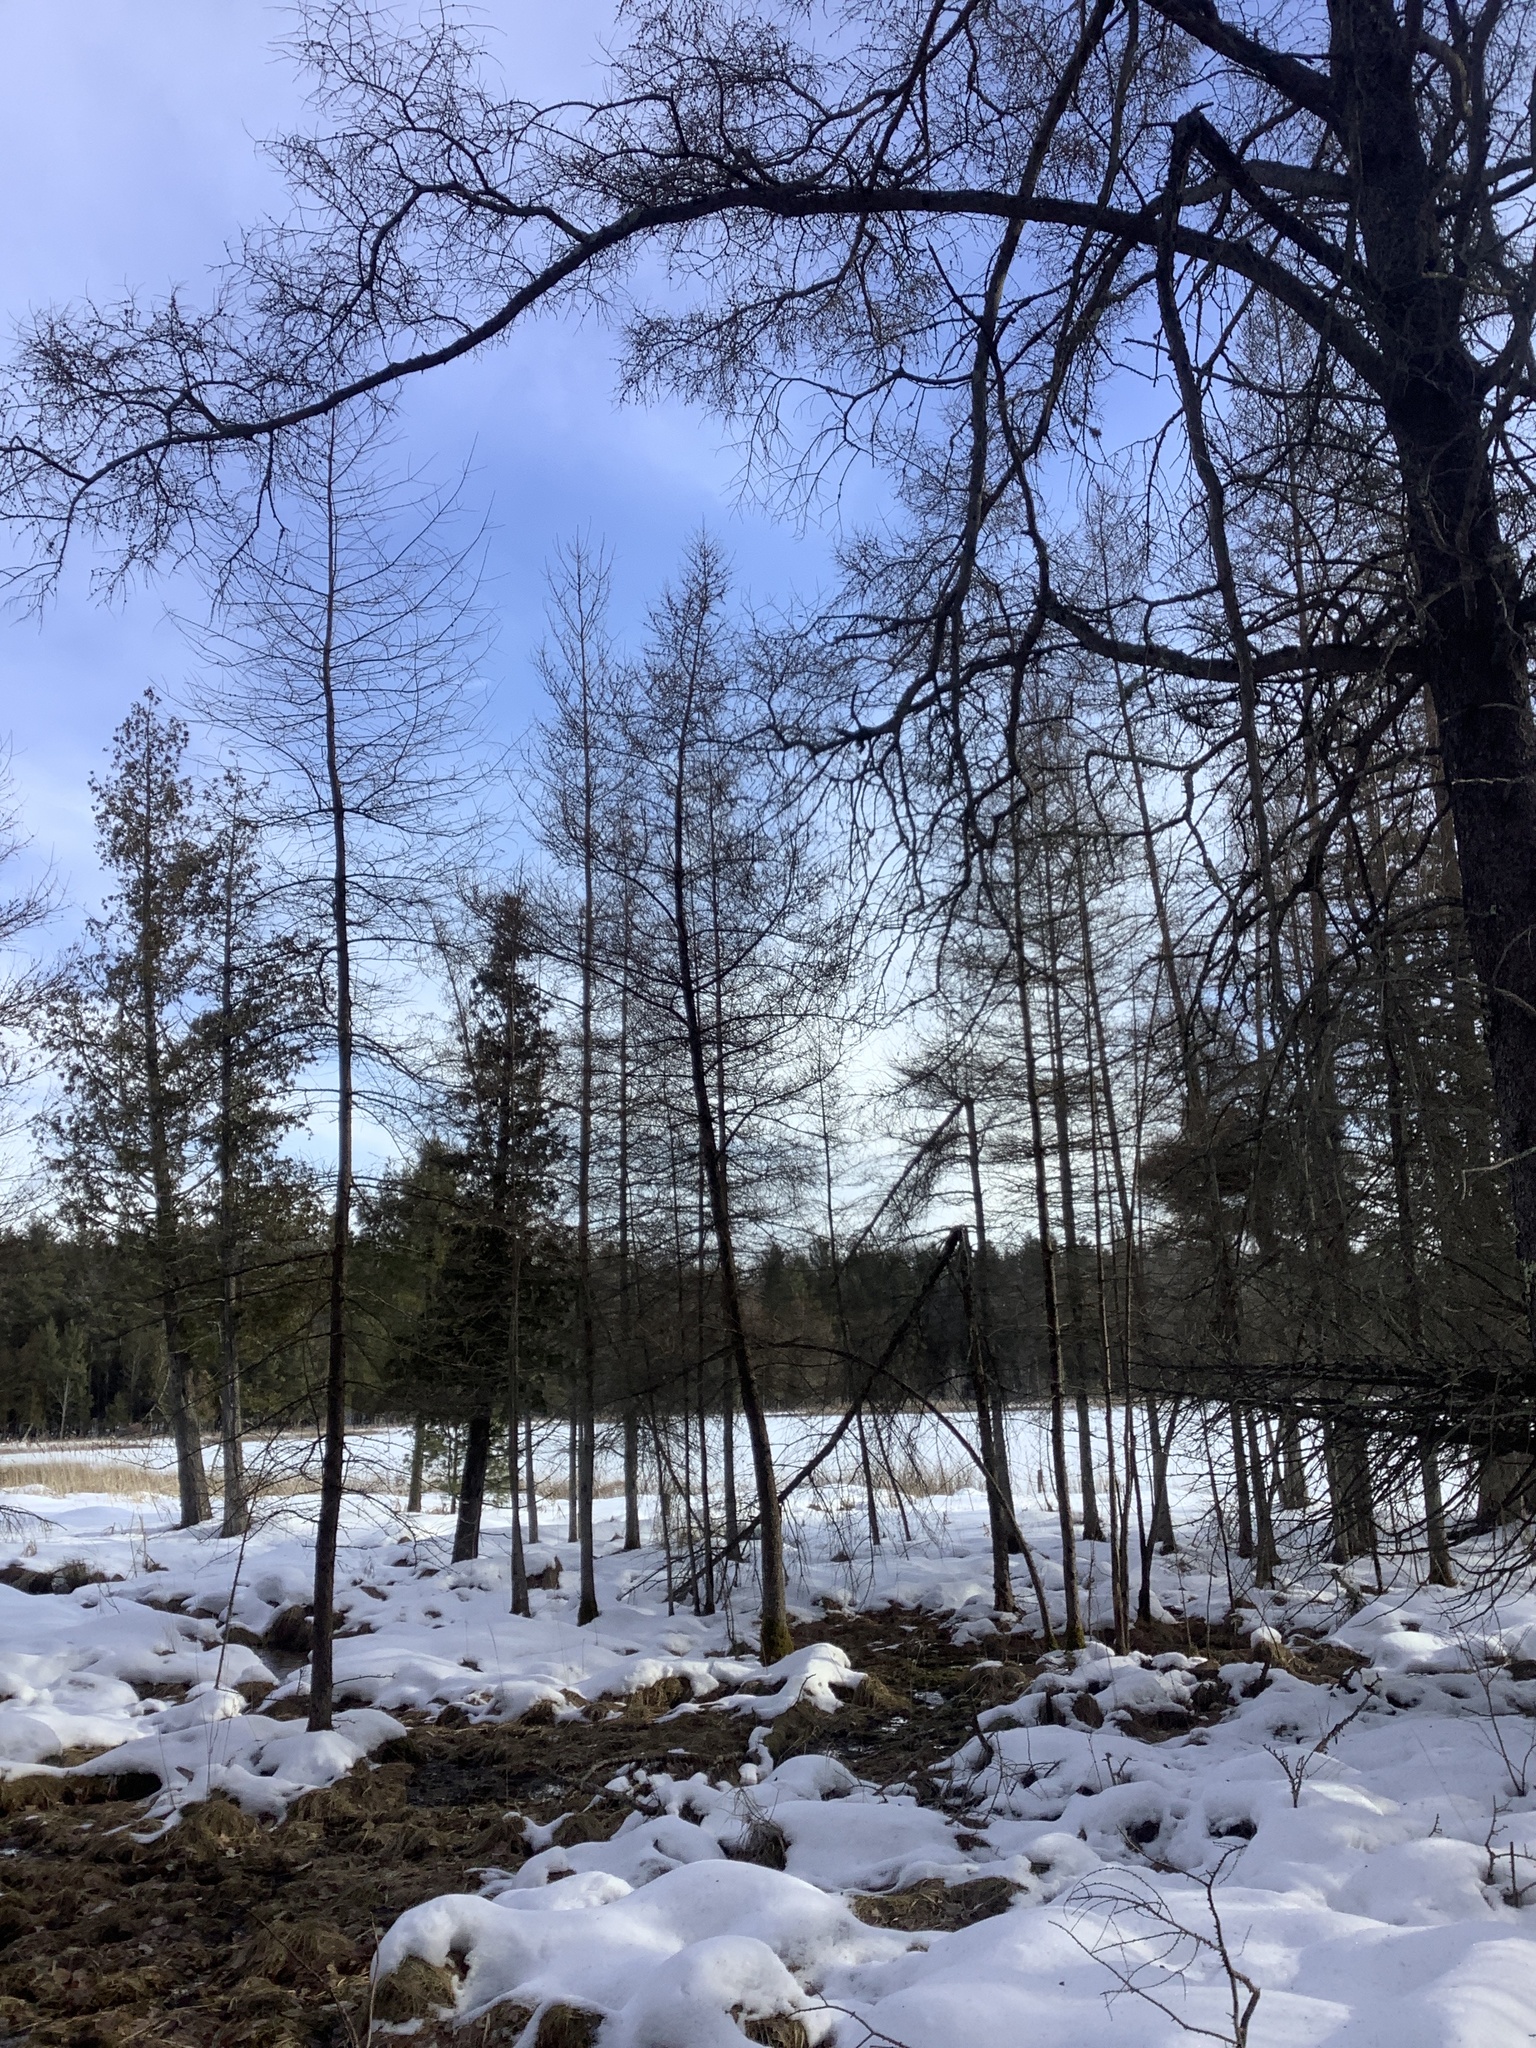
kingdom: Plantae
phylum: Tracheophyta
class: Pinopsida
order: Pinales
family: Pinaceae
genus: Larix
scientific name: Larix laricina
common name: American larch
